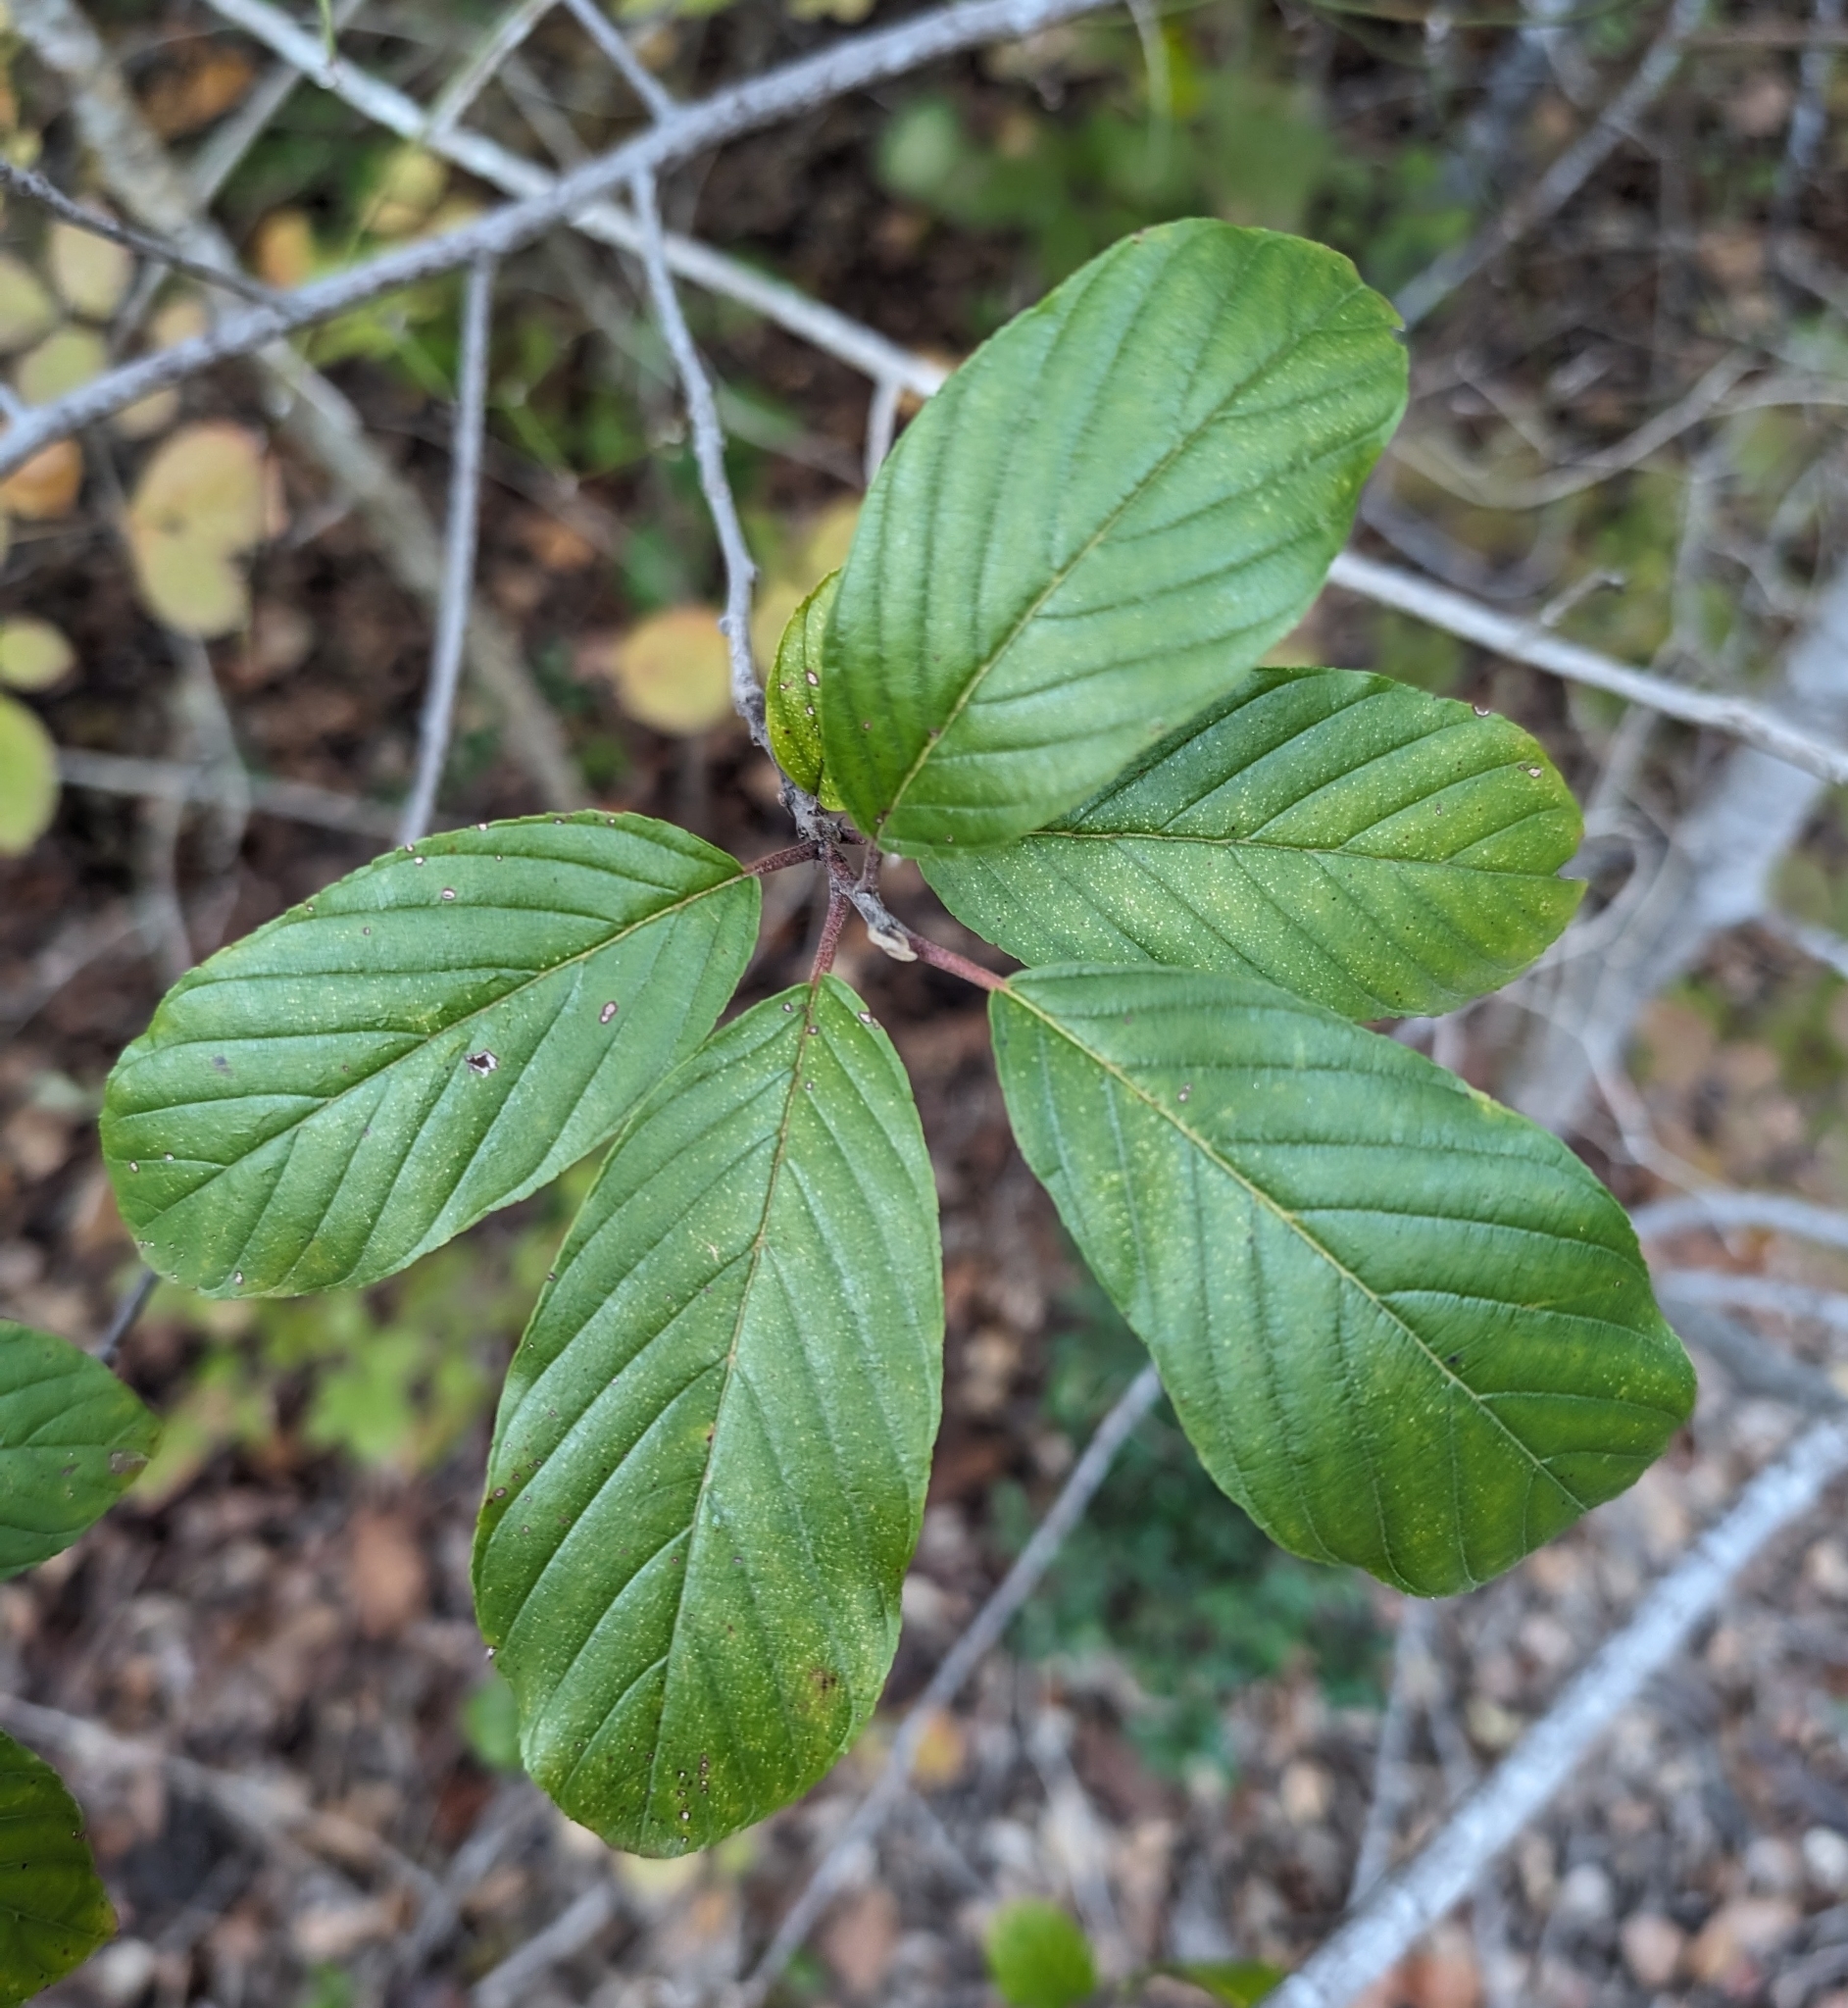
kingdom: Plantae
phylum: Tracheophyta
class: Magnoliopsida
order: Rosales
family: Rhamnaceae
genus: Frangula
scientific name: Frangula caroliniana
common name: Carolina buckthorn
